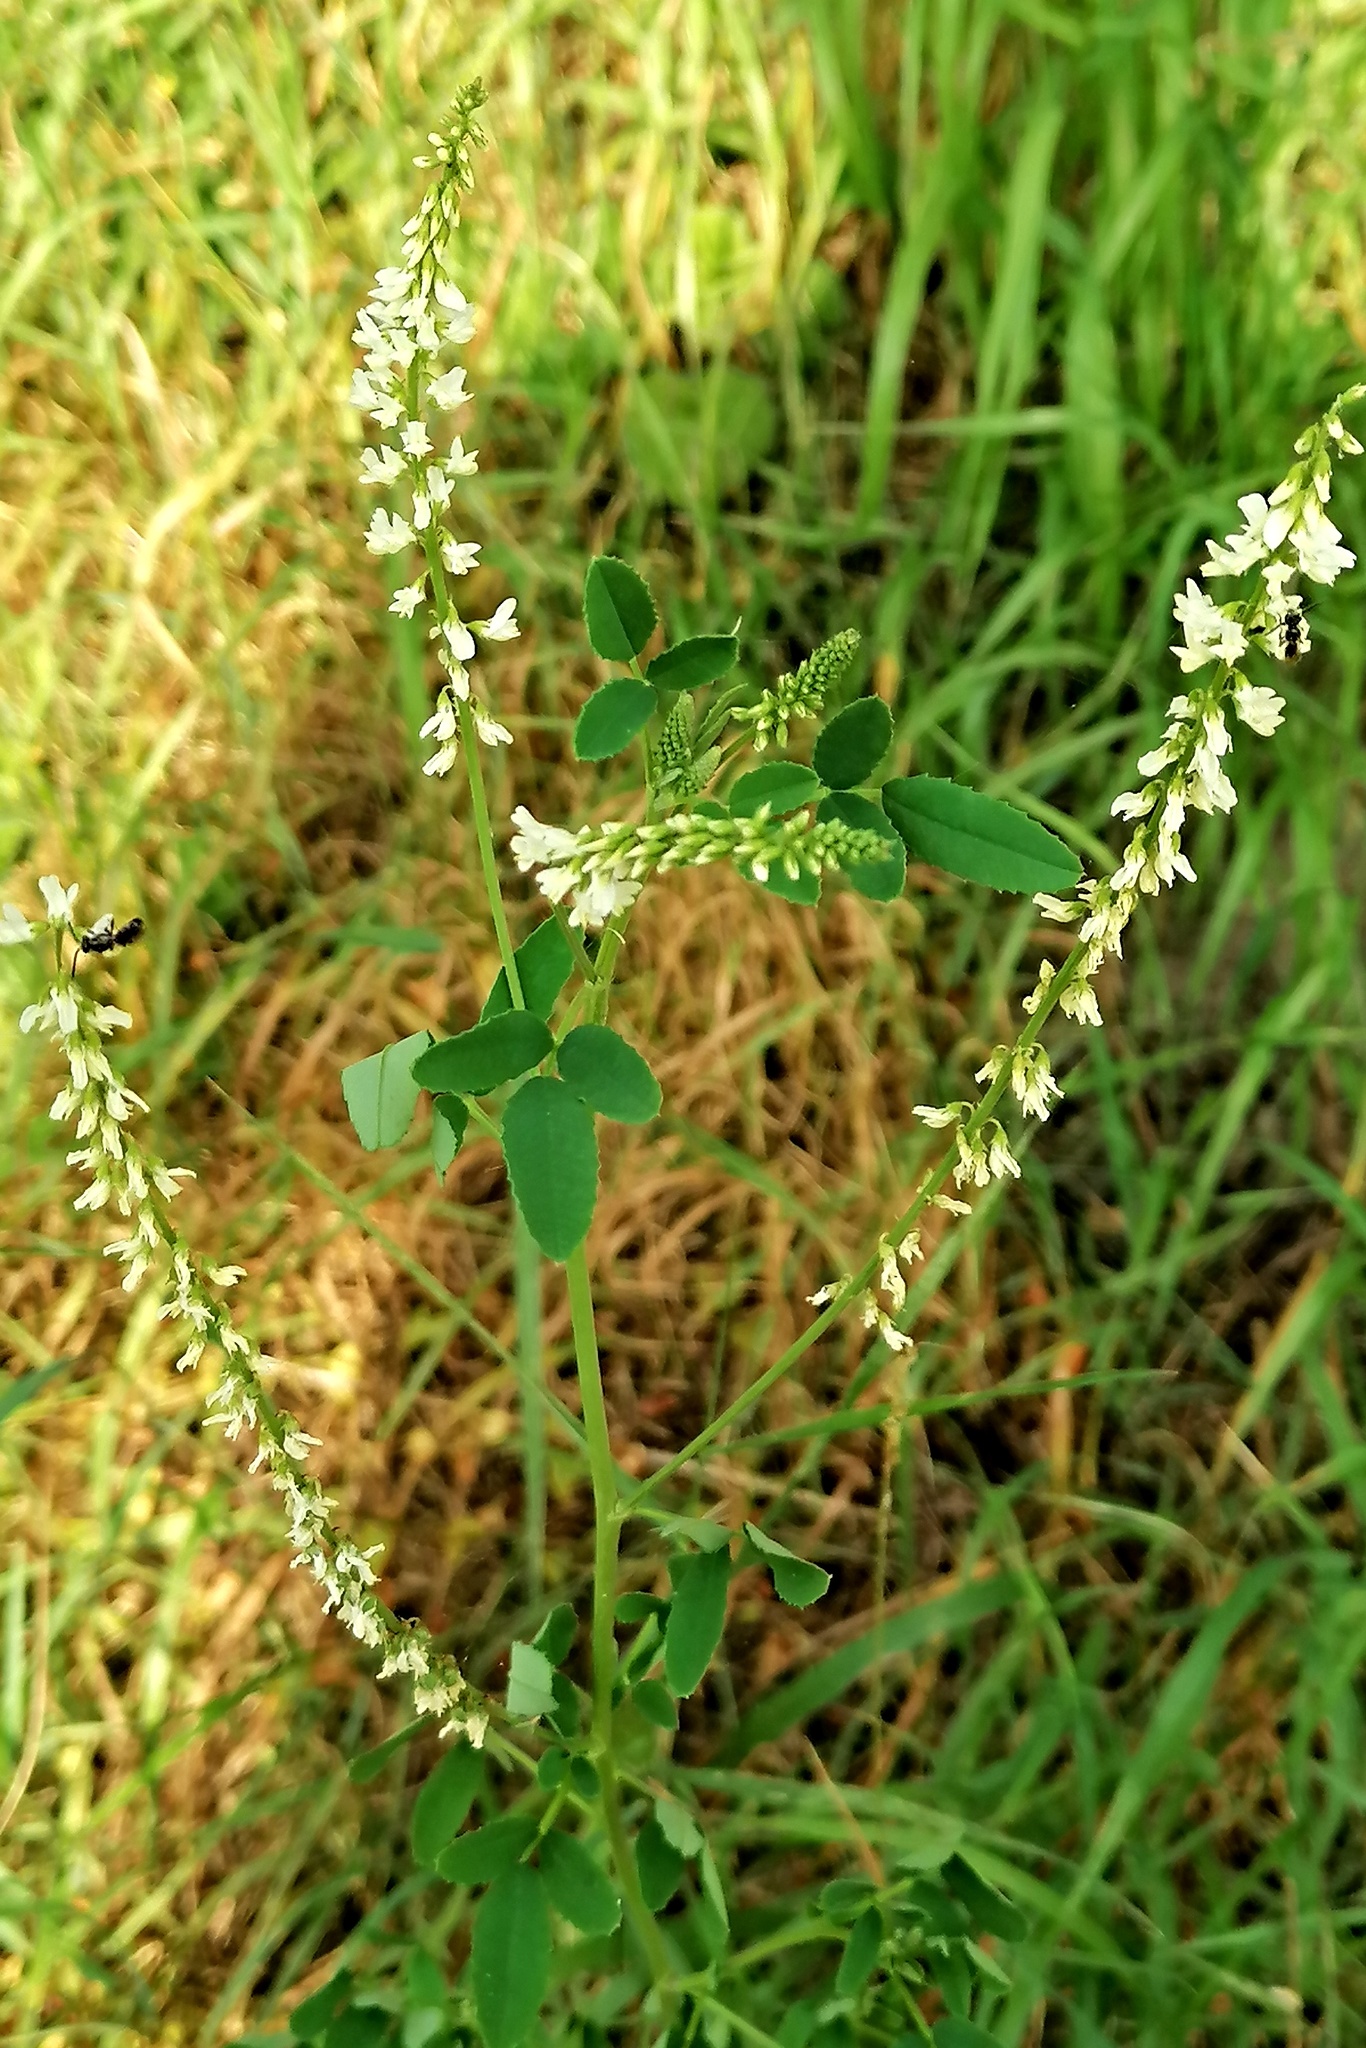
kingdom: Plantae
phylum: Tracheophyta
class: Magnoliopsida
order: Fabales
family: Fabaceae
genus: Melilotus
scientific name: Melilotus albus
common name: White melilot
